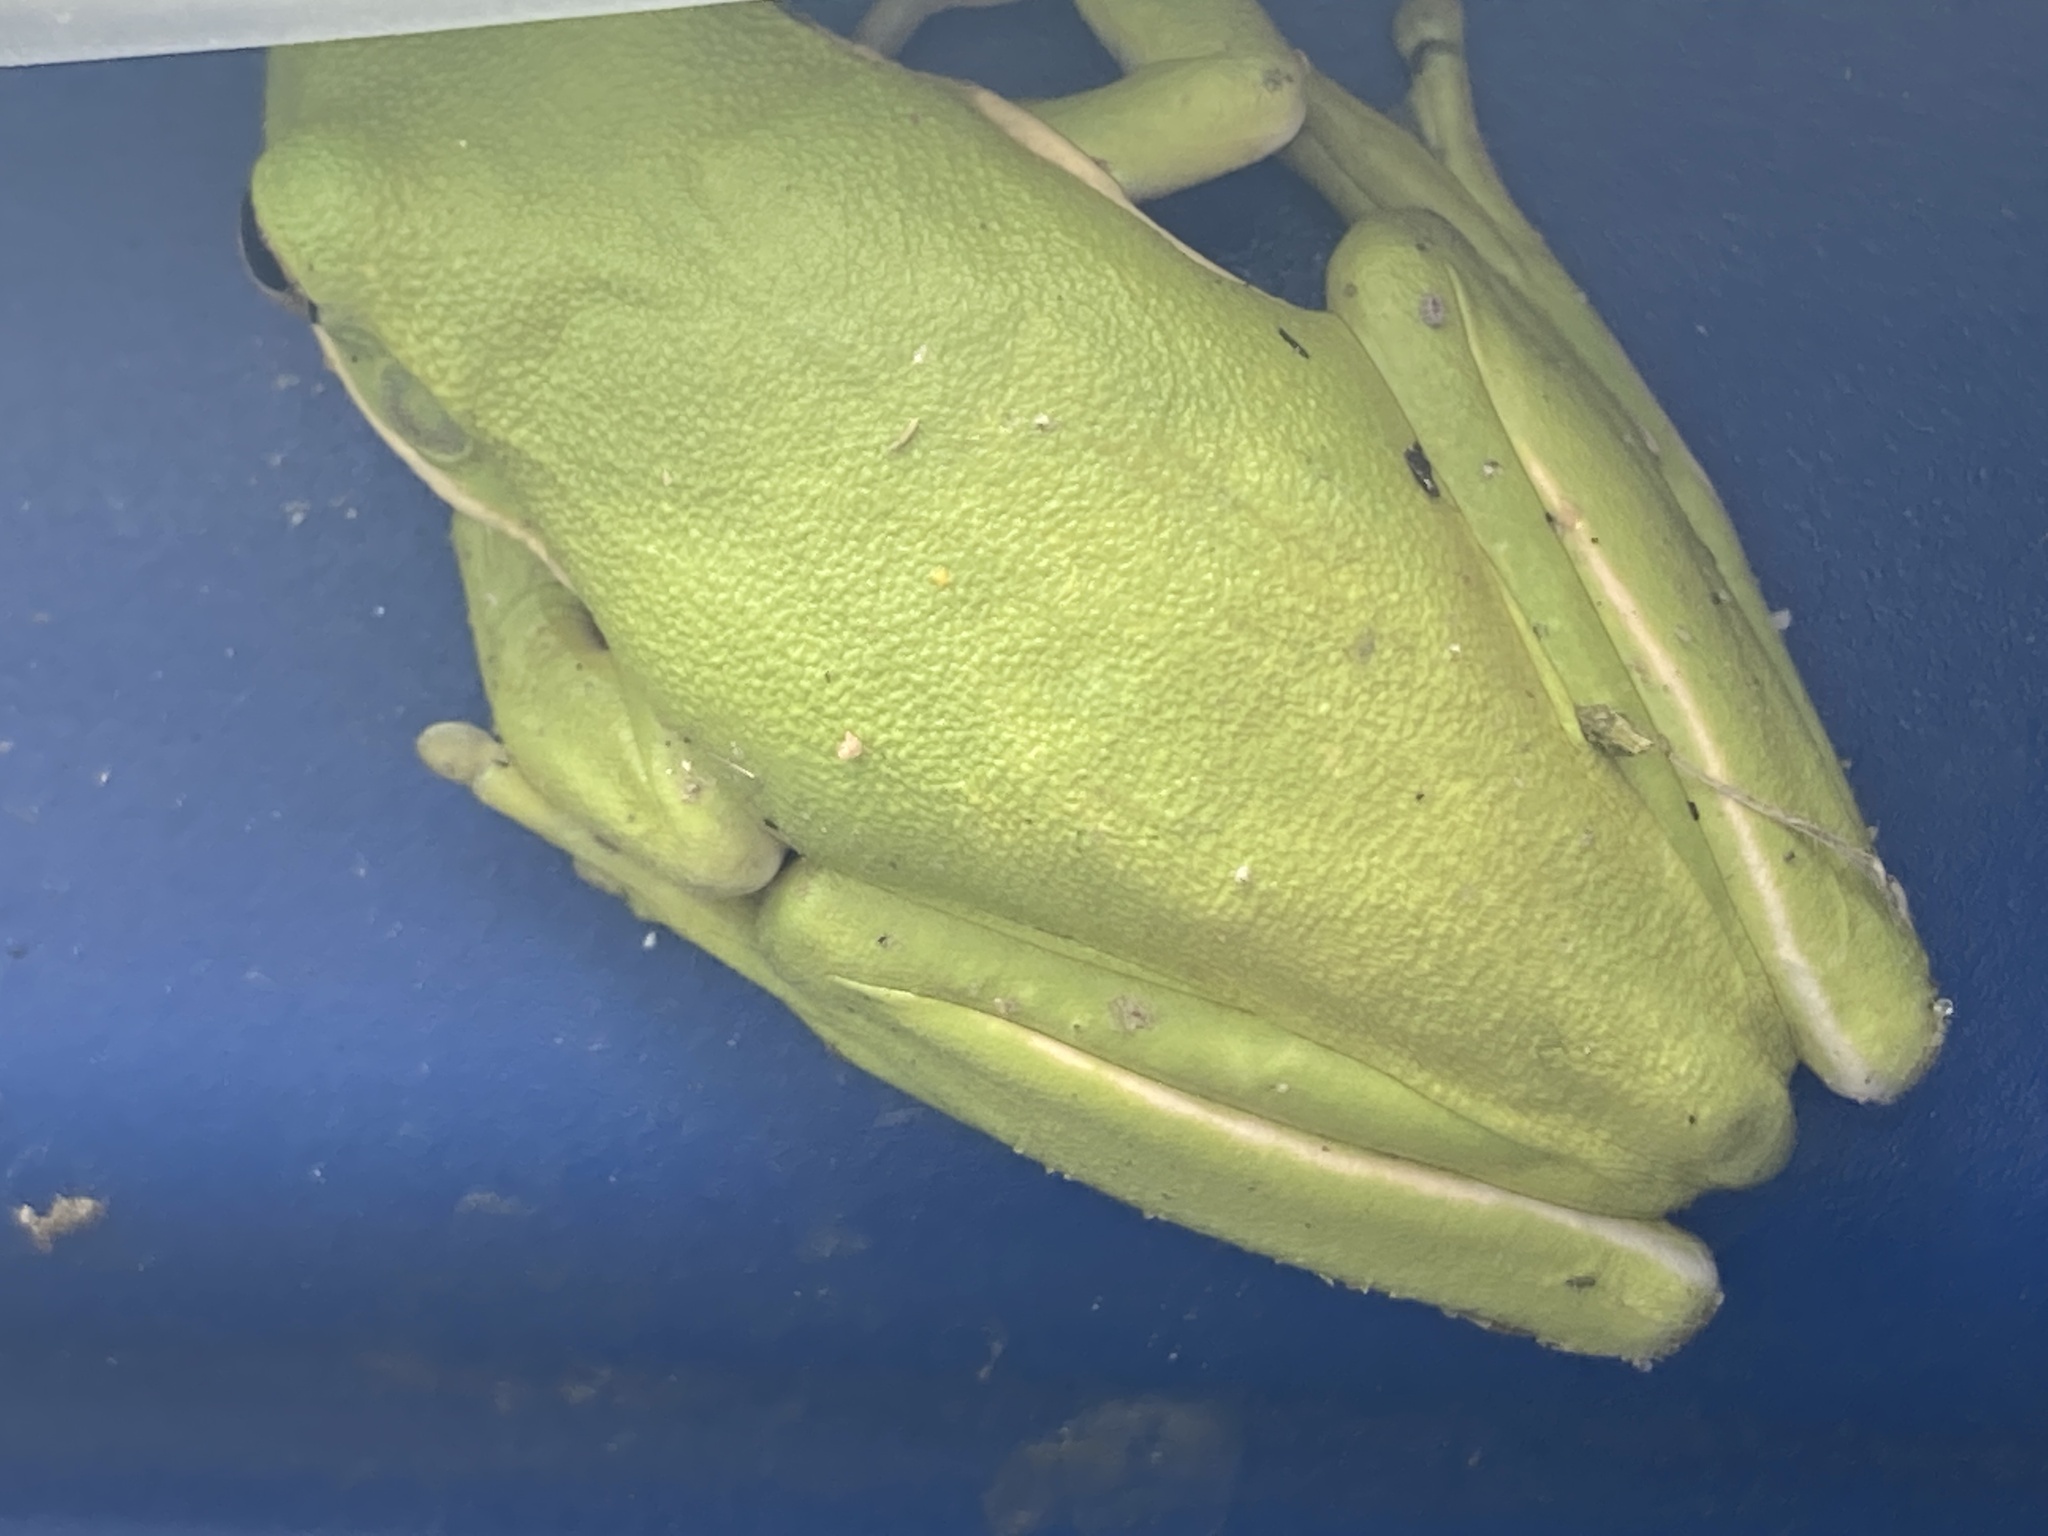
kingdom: Animalia
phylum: Chordata
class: Amphibia
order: Anura
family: Hylidae
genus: Dryophytes
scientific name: Dryophytes cinereus
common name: Green treefrog
